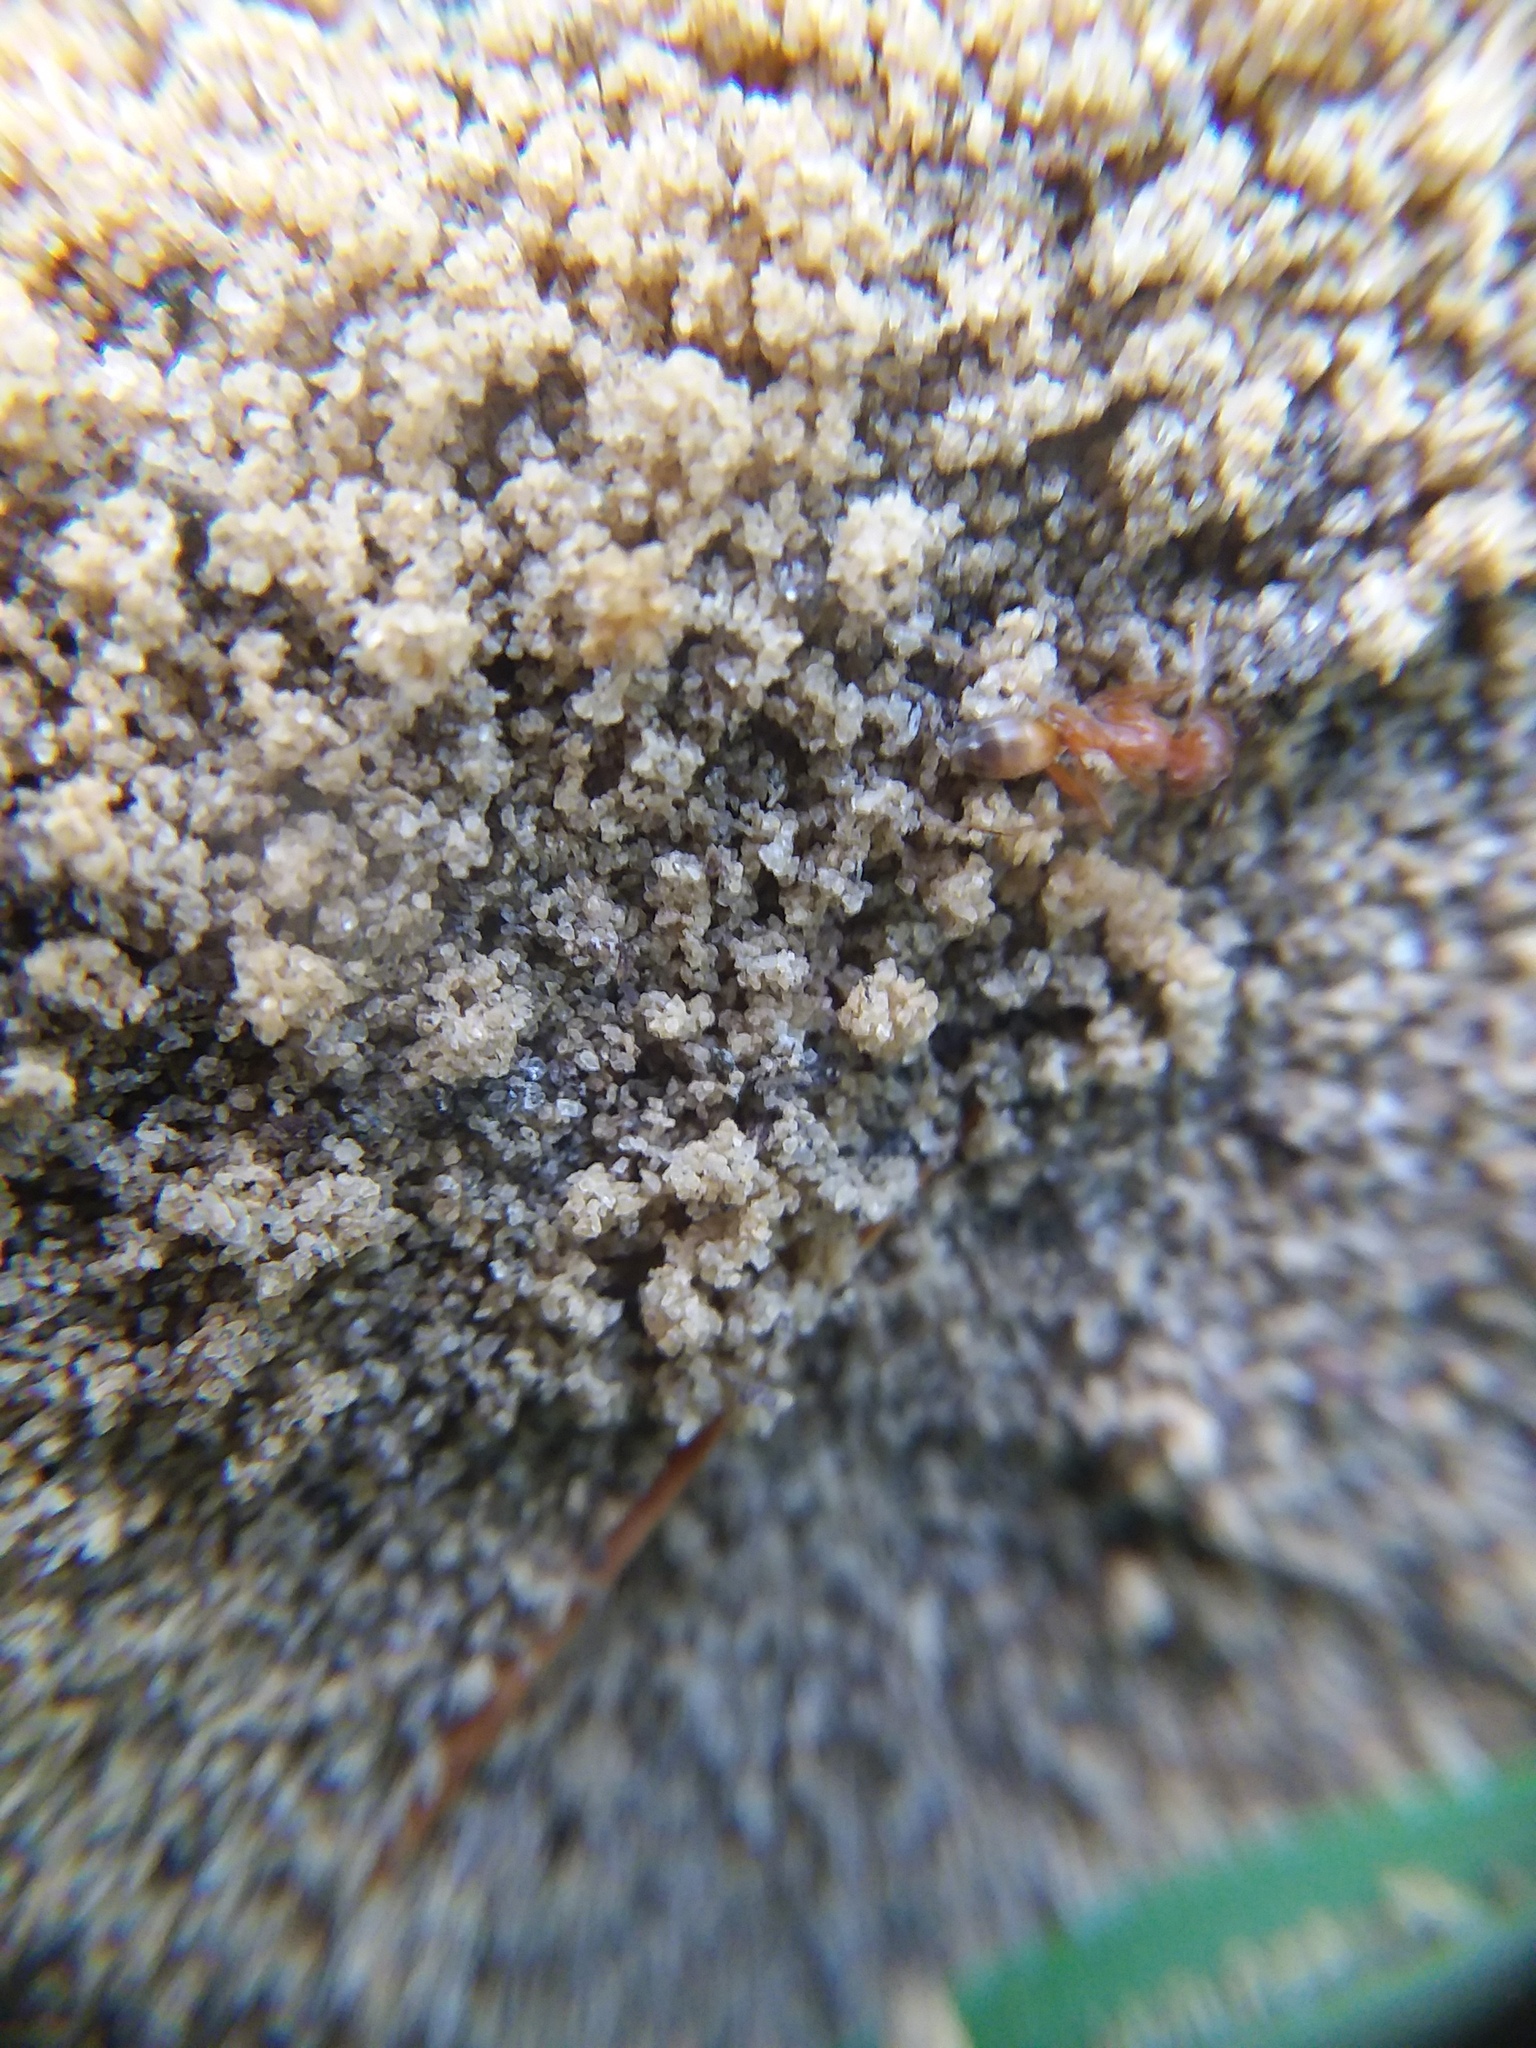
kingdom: Animalia
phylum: Arthropoda
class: Insecta
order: Hymenoptera
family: Formicidae
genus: Dorymyrmex
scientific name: Dorymyrmex bureni
